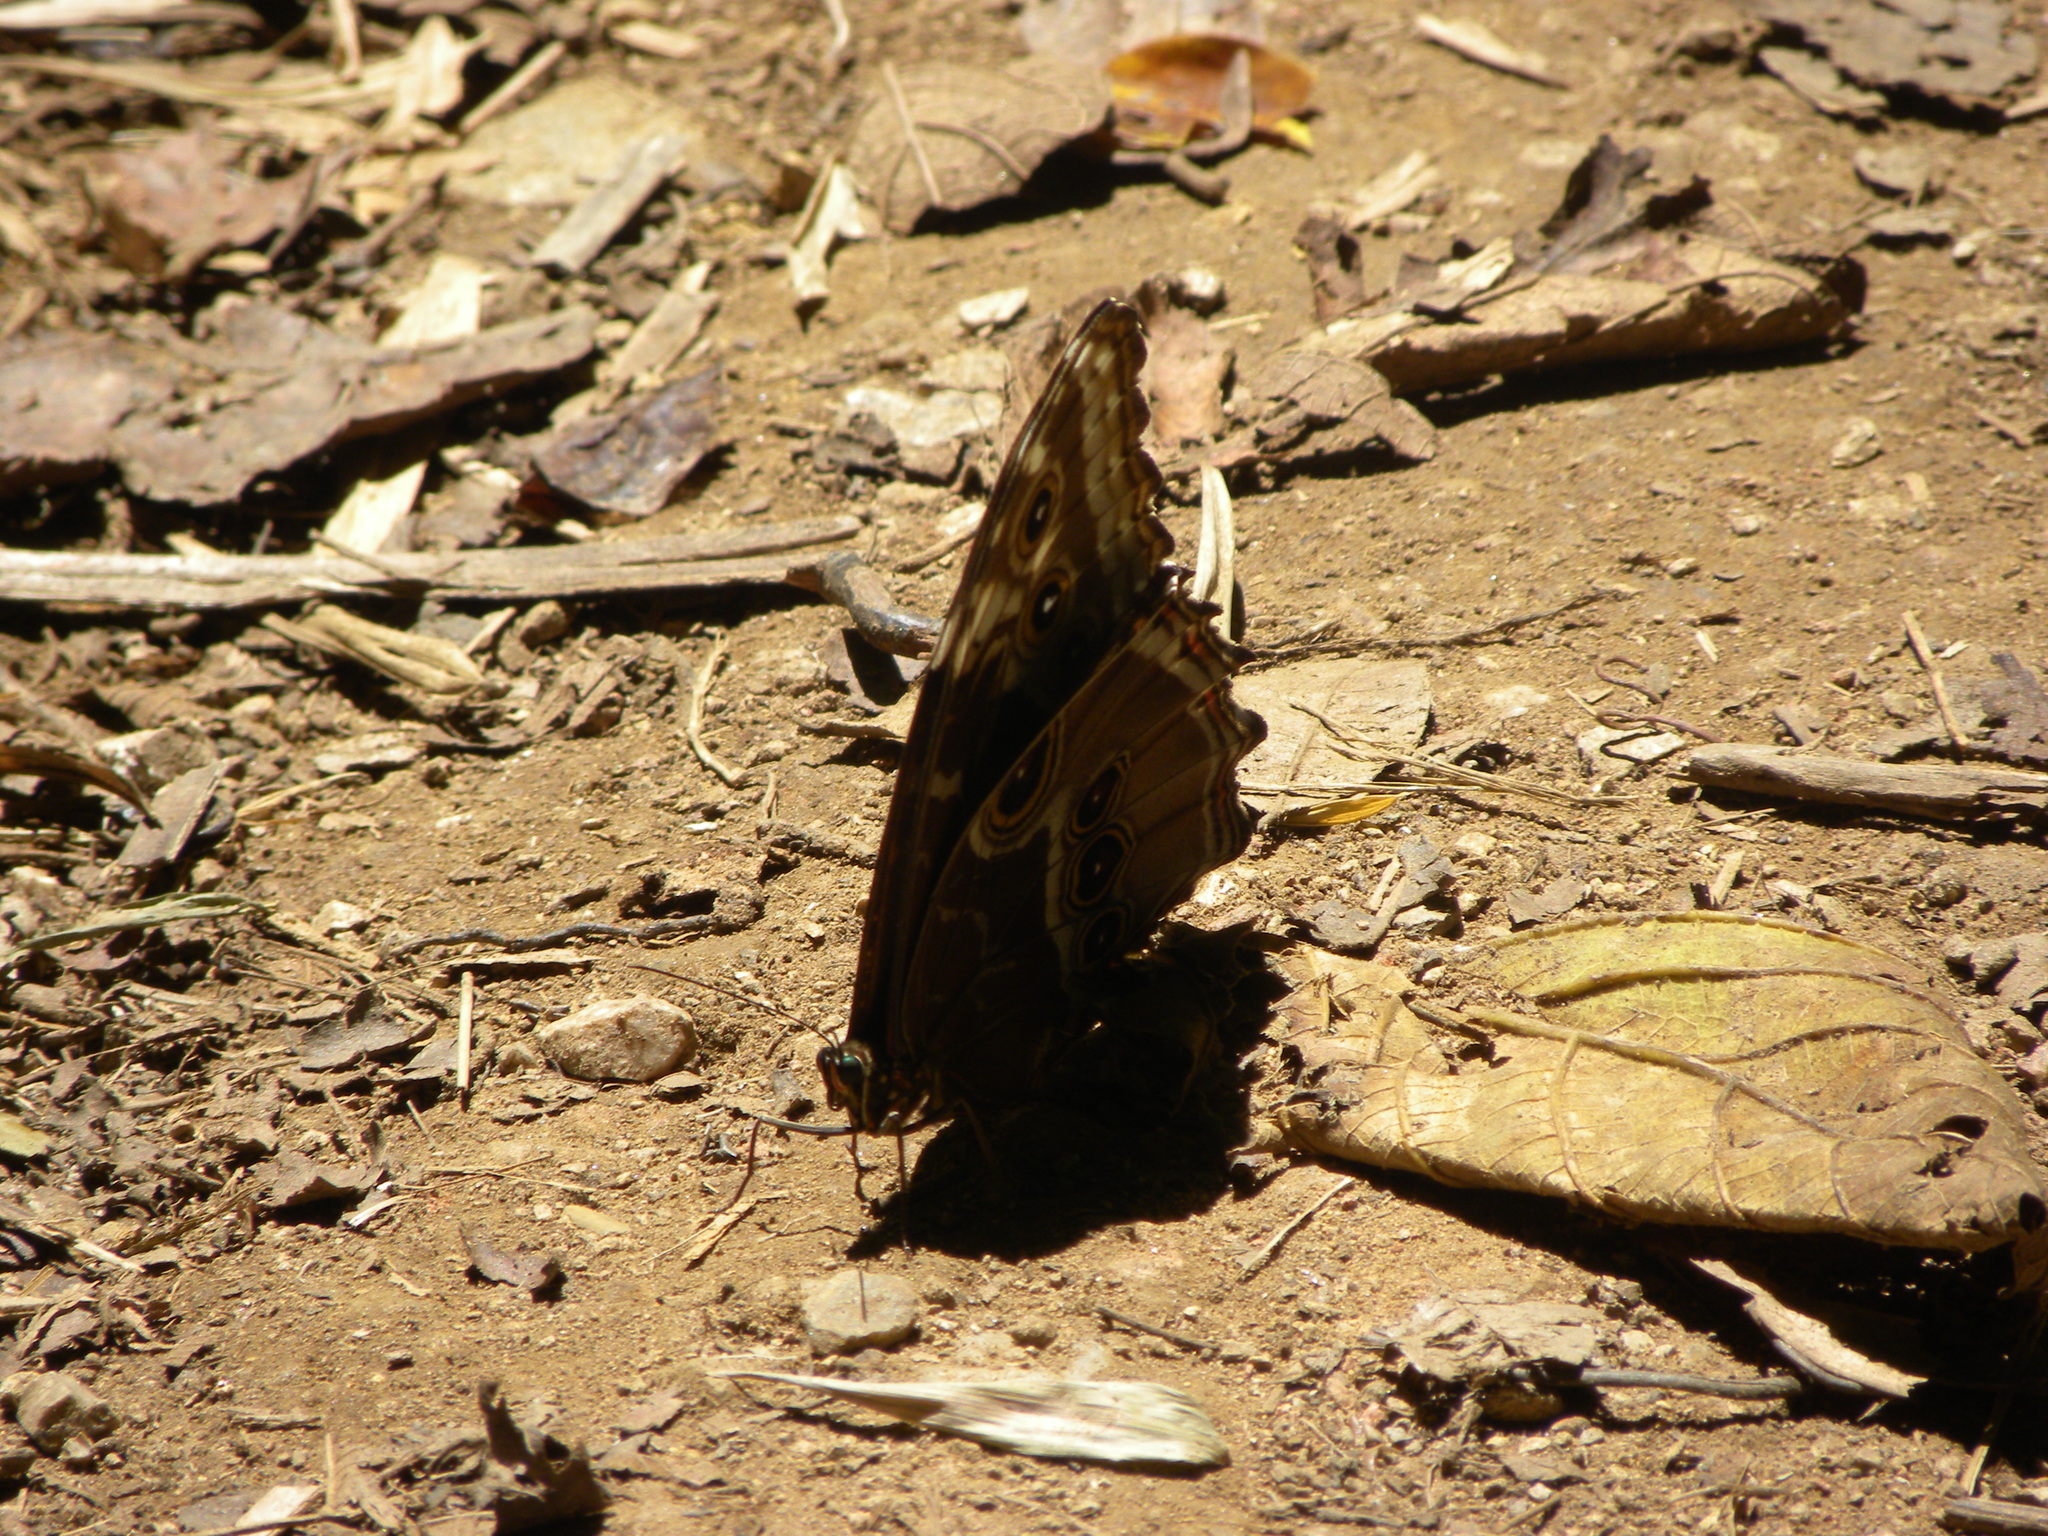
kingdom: Animalia
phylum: Arthropoda
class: Insecta
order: Lepidoptera
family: Nymphalidae
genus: Morpho
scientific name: Morpho helenor
